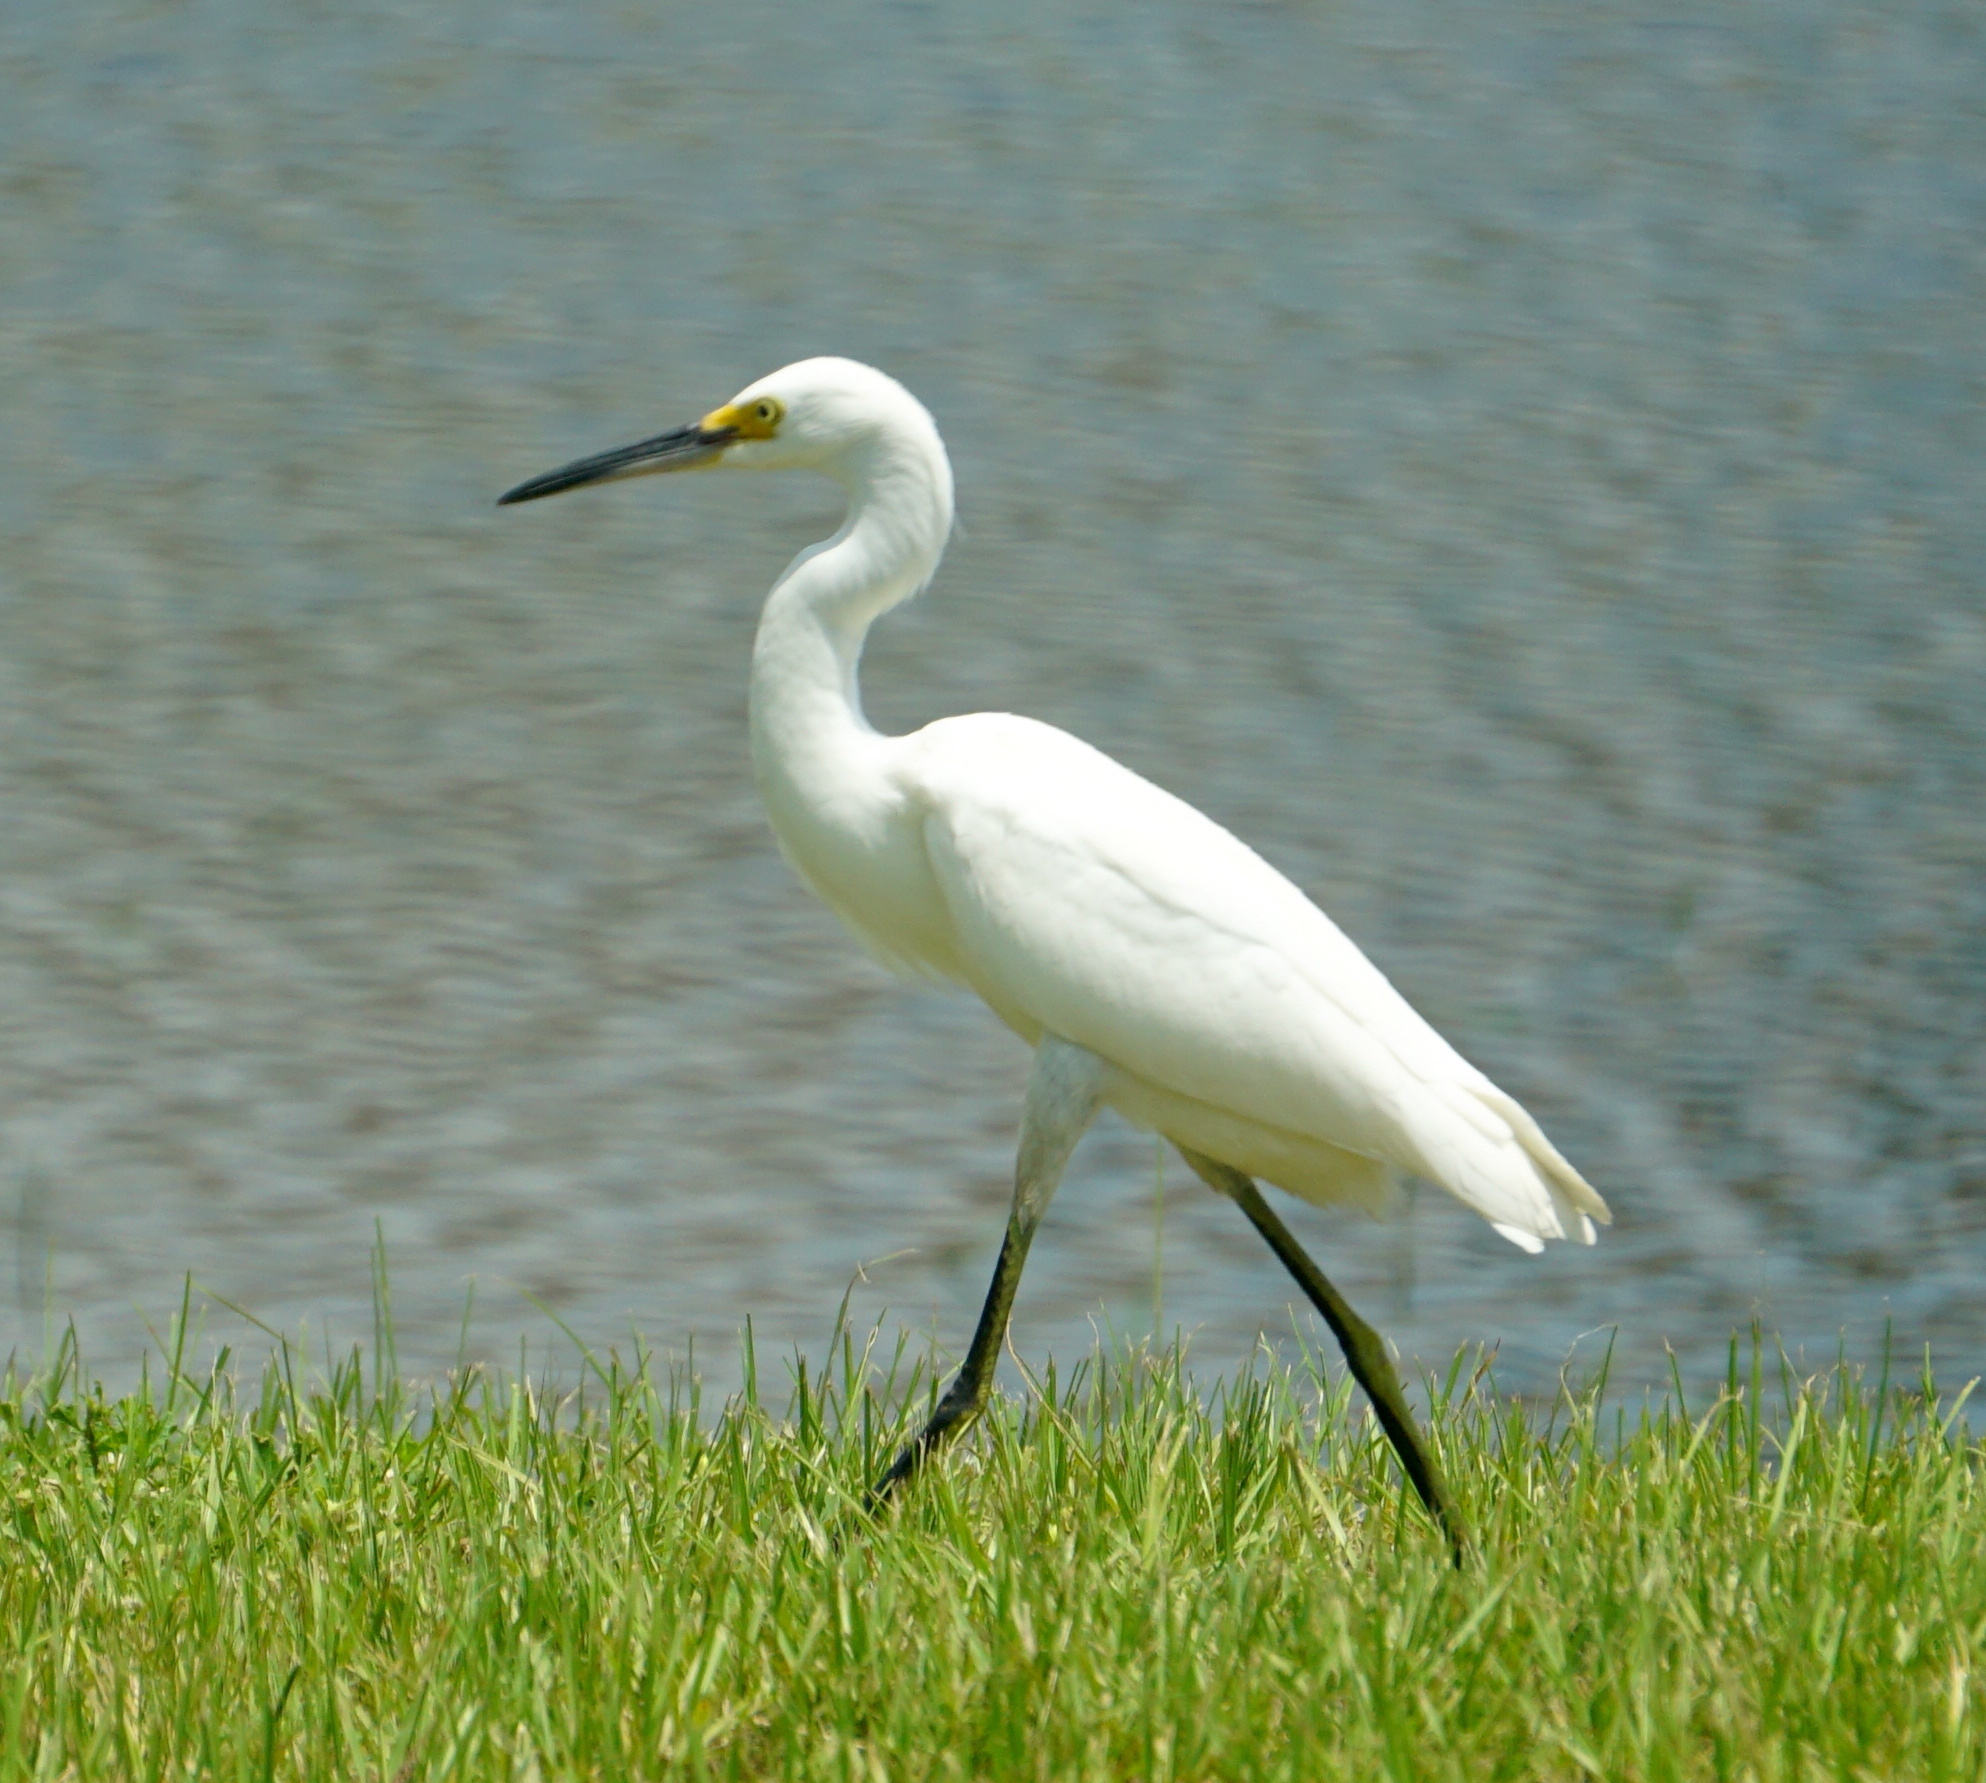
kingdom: Animalia
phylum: Chordata
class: Aves
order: Pelecaniformes
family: Ardeidae
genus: Egretta
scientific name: Egretta thula
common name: Snowy egret
